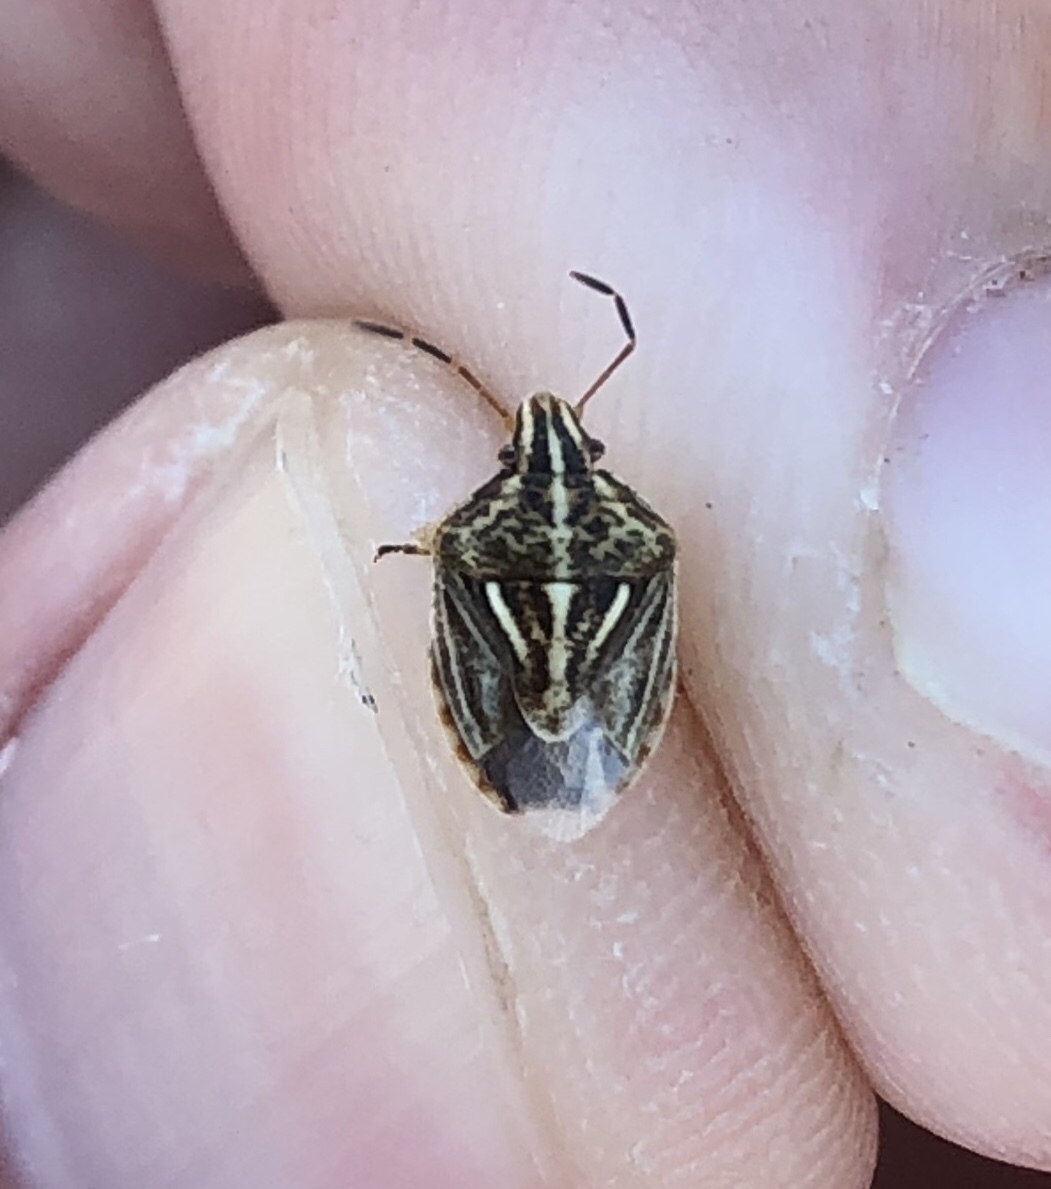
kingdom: Animalia
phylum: Arthropoda
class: Insecta
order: Hemiptera
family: Pentatomidae
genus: Trichopepla
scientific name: Trichopepla semivittata
